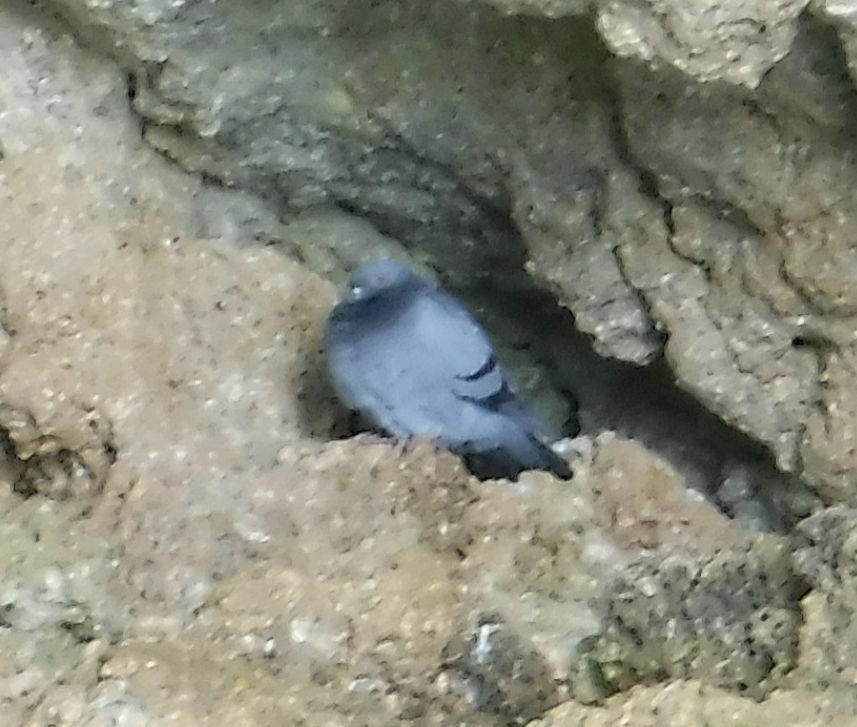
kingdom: Animalia
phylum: Chordata
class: Aves
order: Columbiformes
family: Columbidae
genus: Columba
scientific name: Columba livia
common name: Rock pigeon
